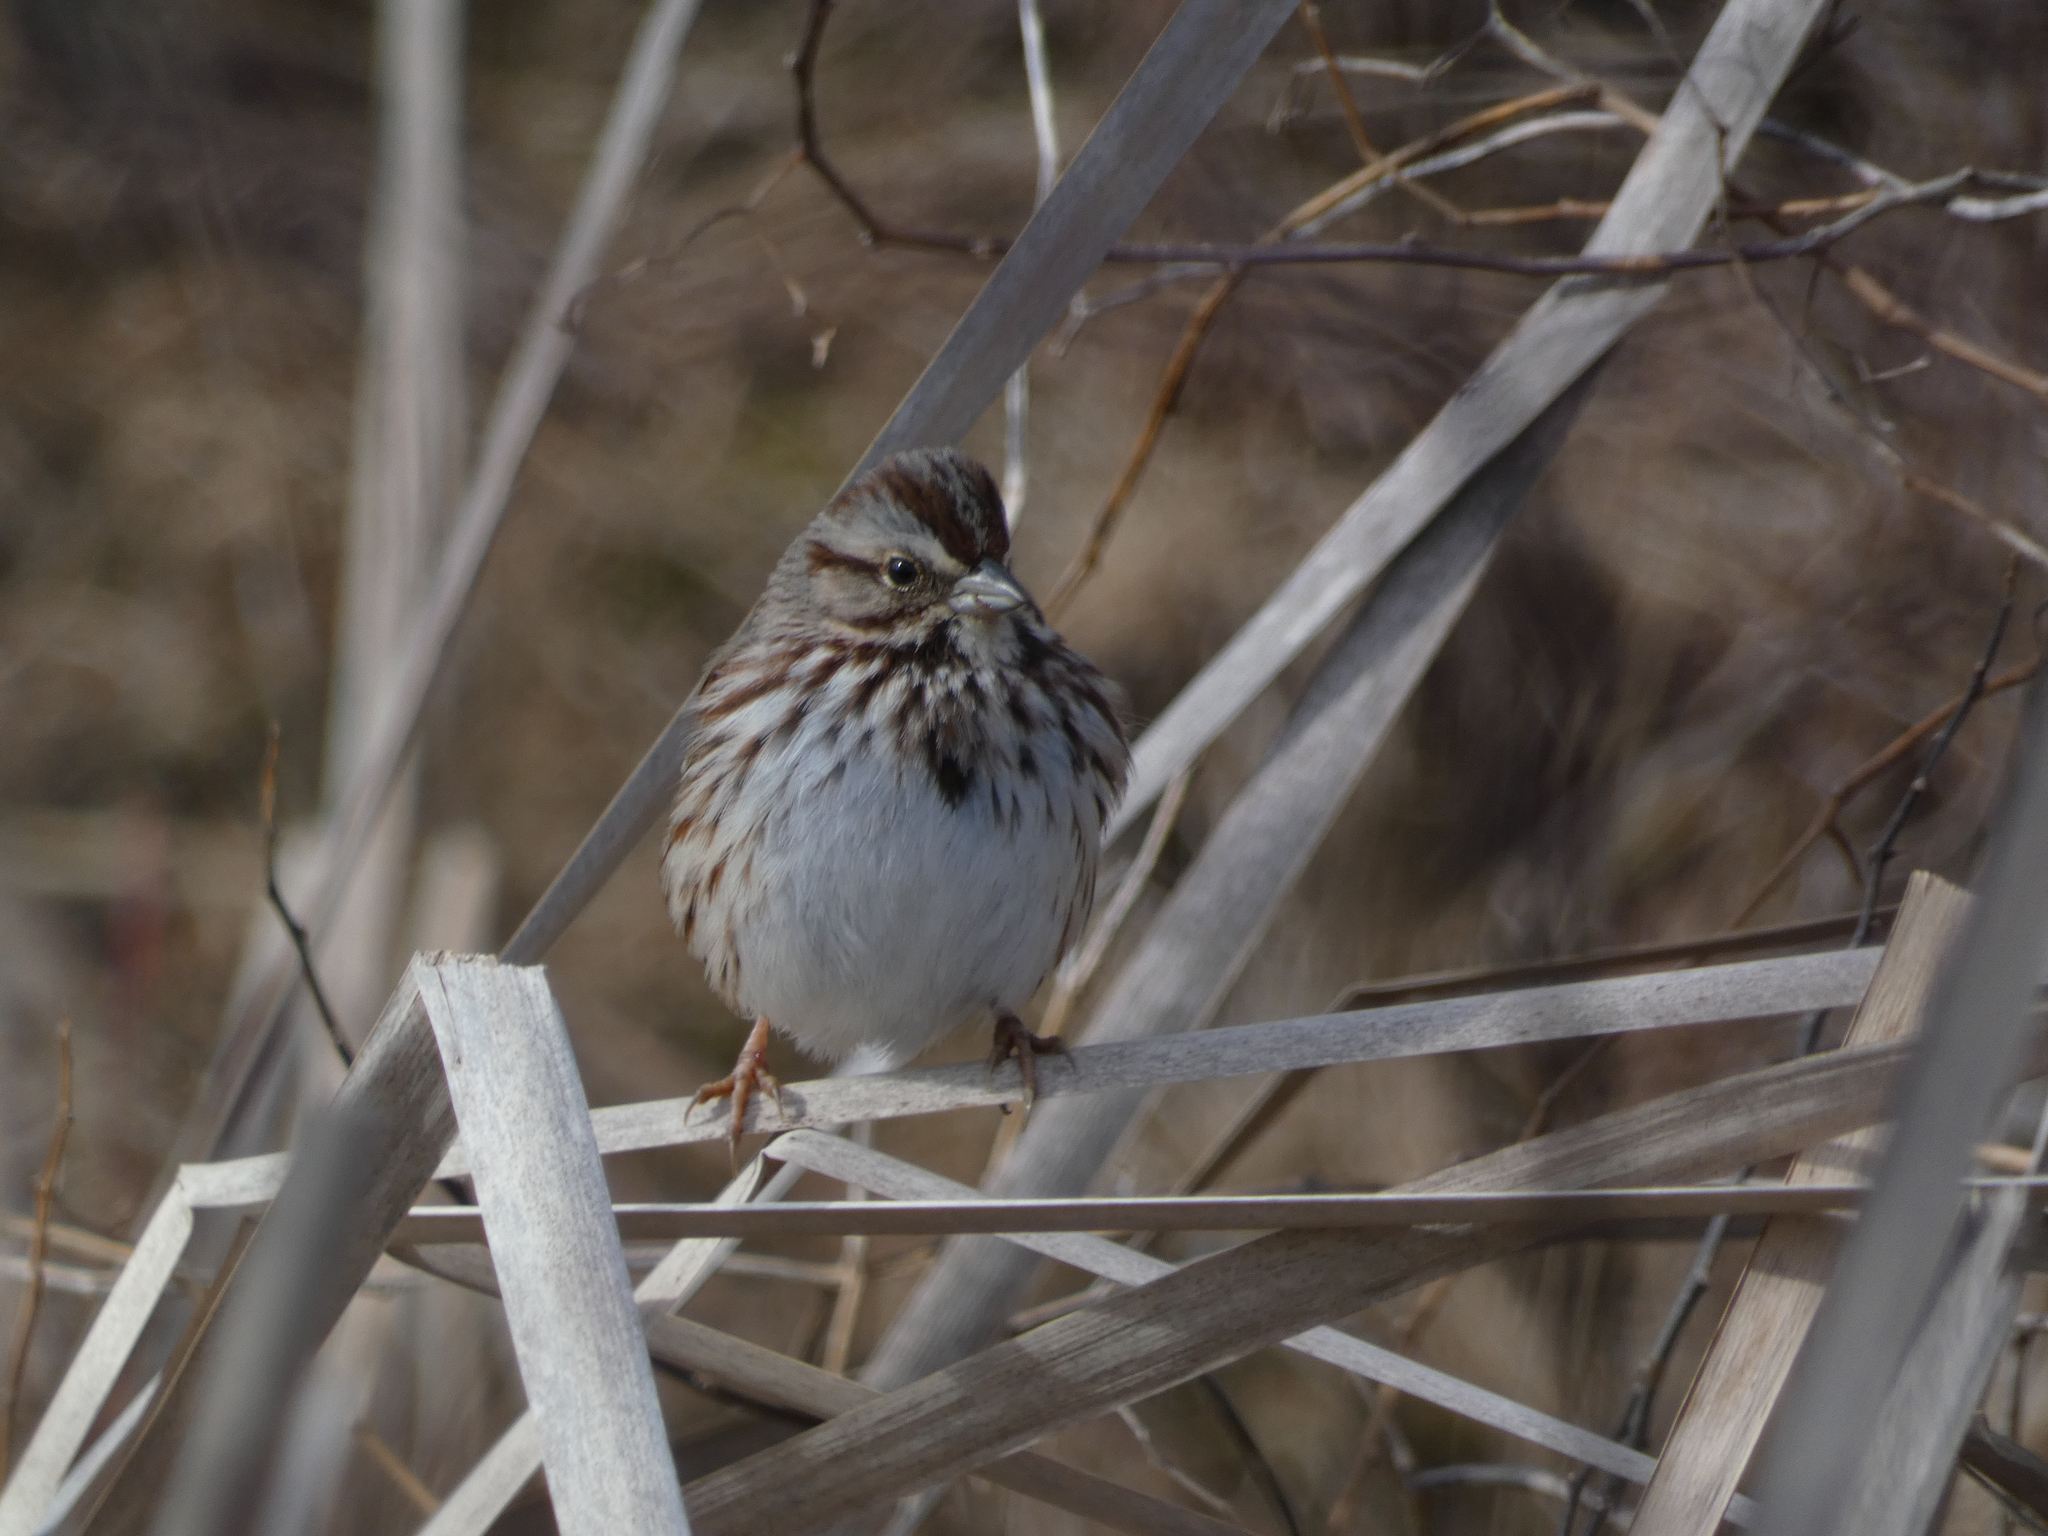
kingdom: Animalia
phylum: Chordata
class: Aves
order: Passeriformes
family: Passerellidae
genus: Melospiza
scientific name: Melospiza melodia
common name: Song sparrow
